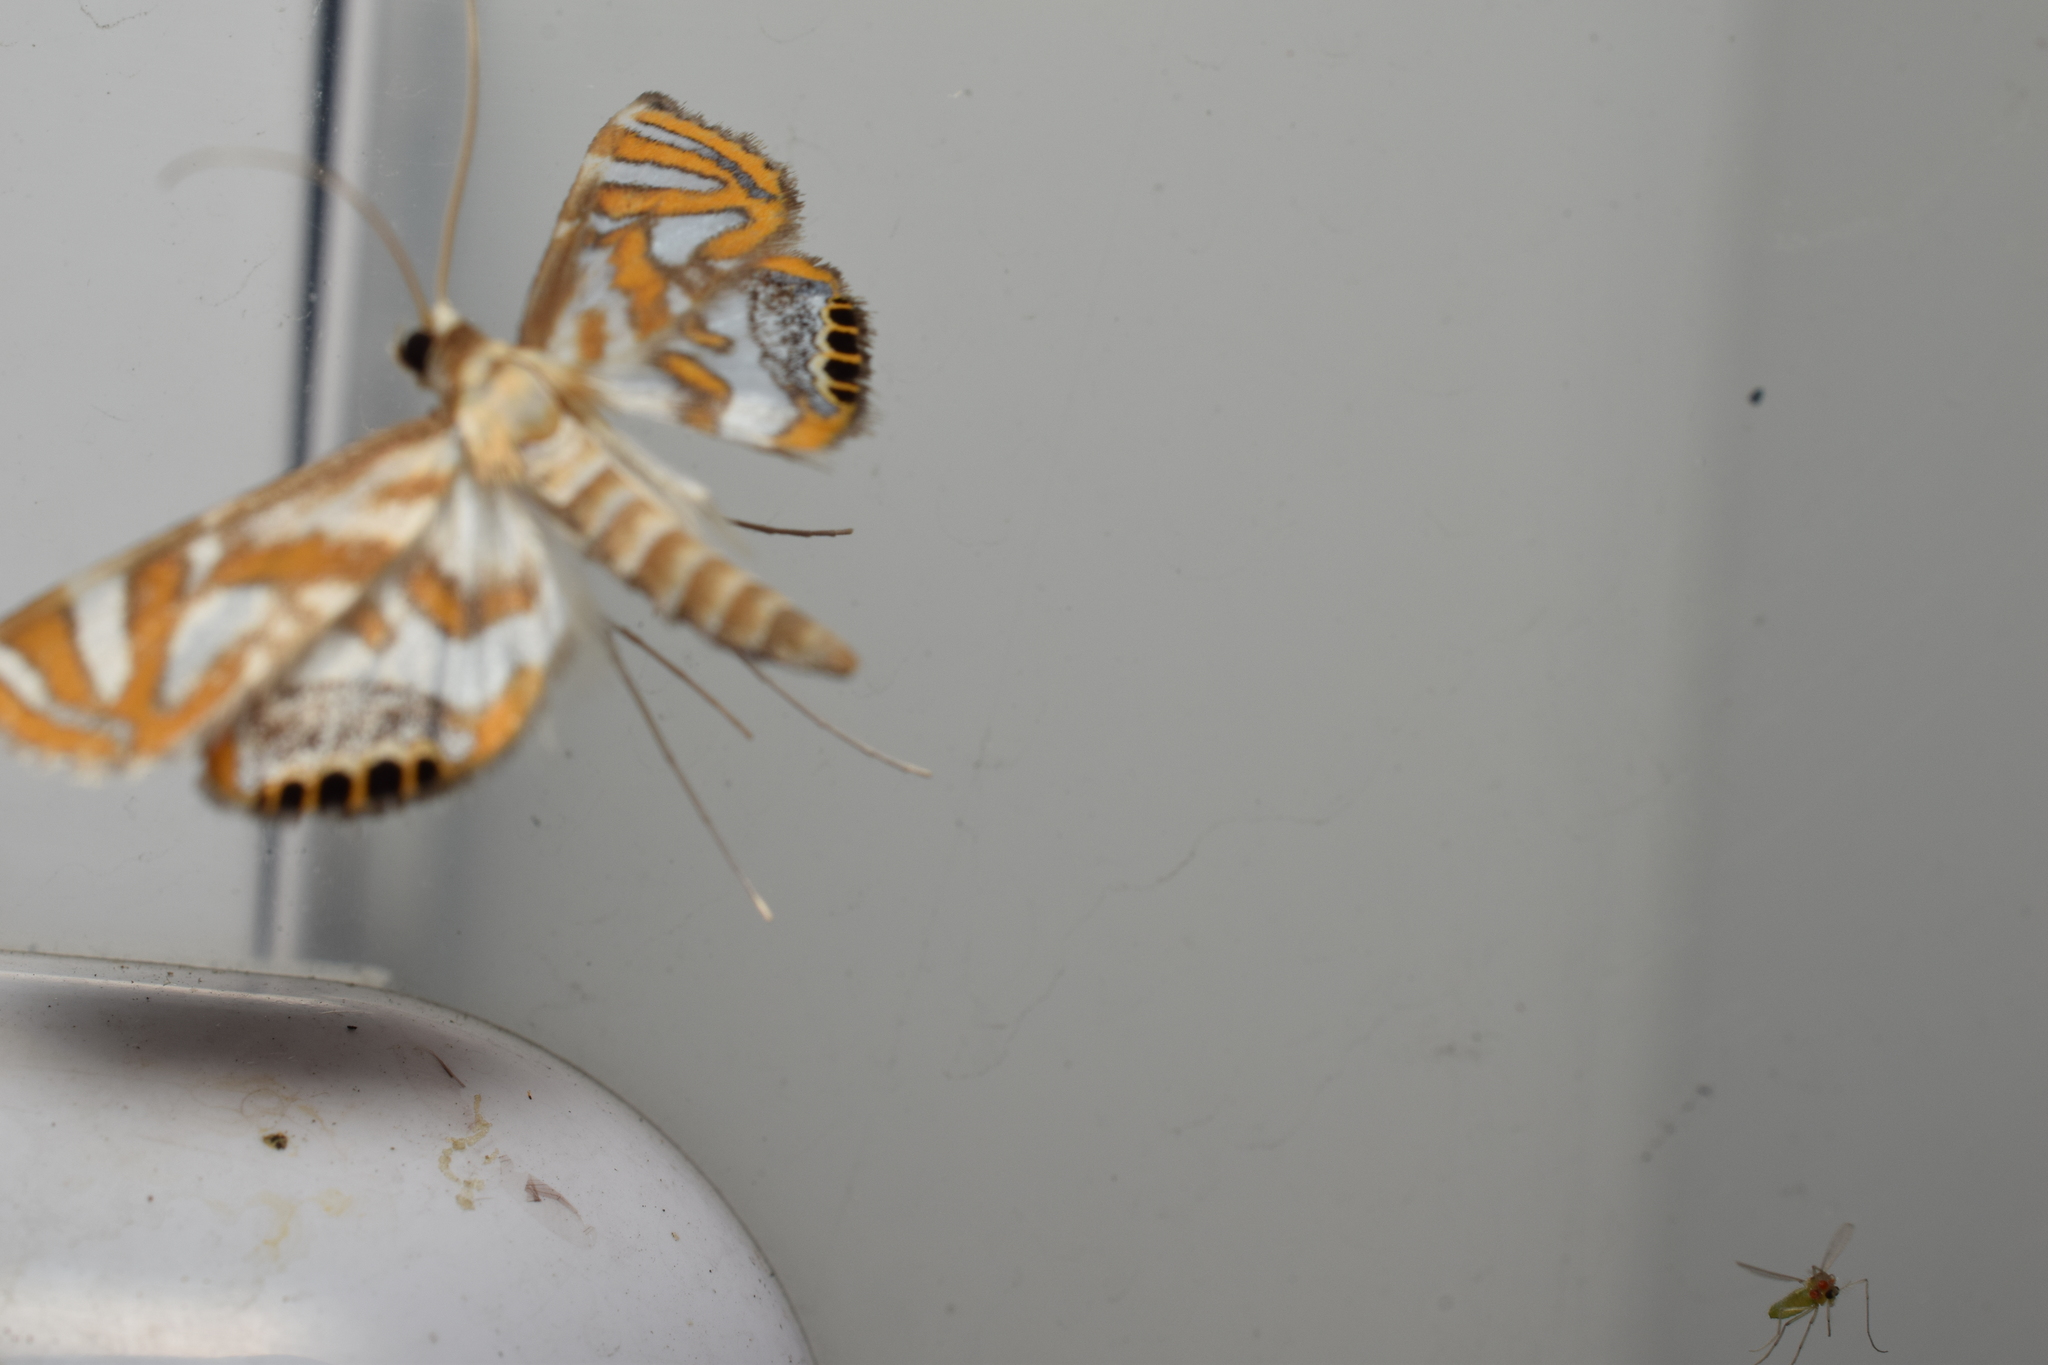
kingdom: Animalia
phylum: Arthropoda
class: Insecta
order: Lepidoptera
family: Crambidae
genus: Potamomusa
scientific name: Potamomusa midas
